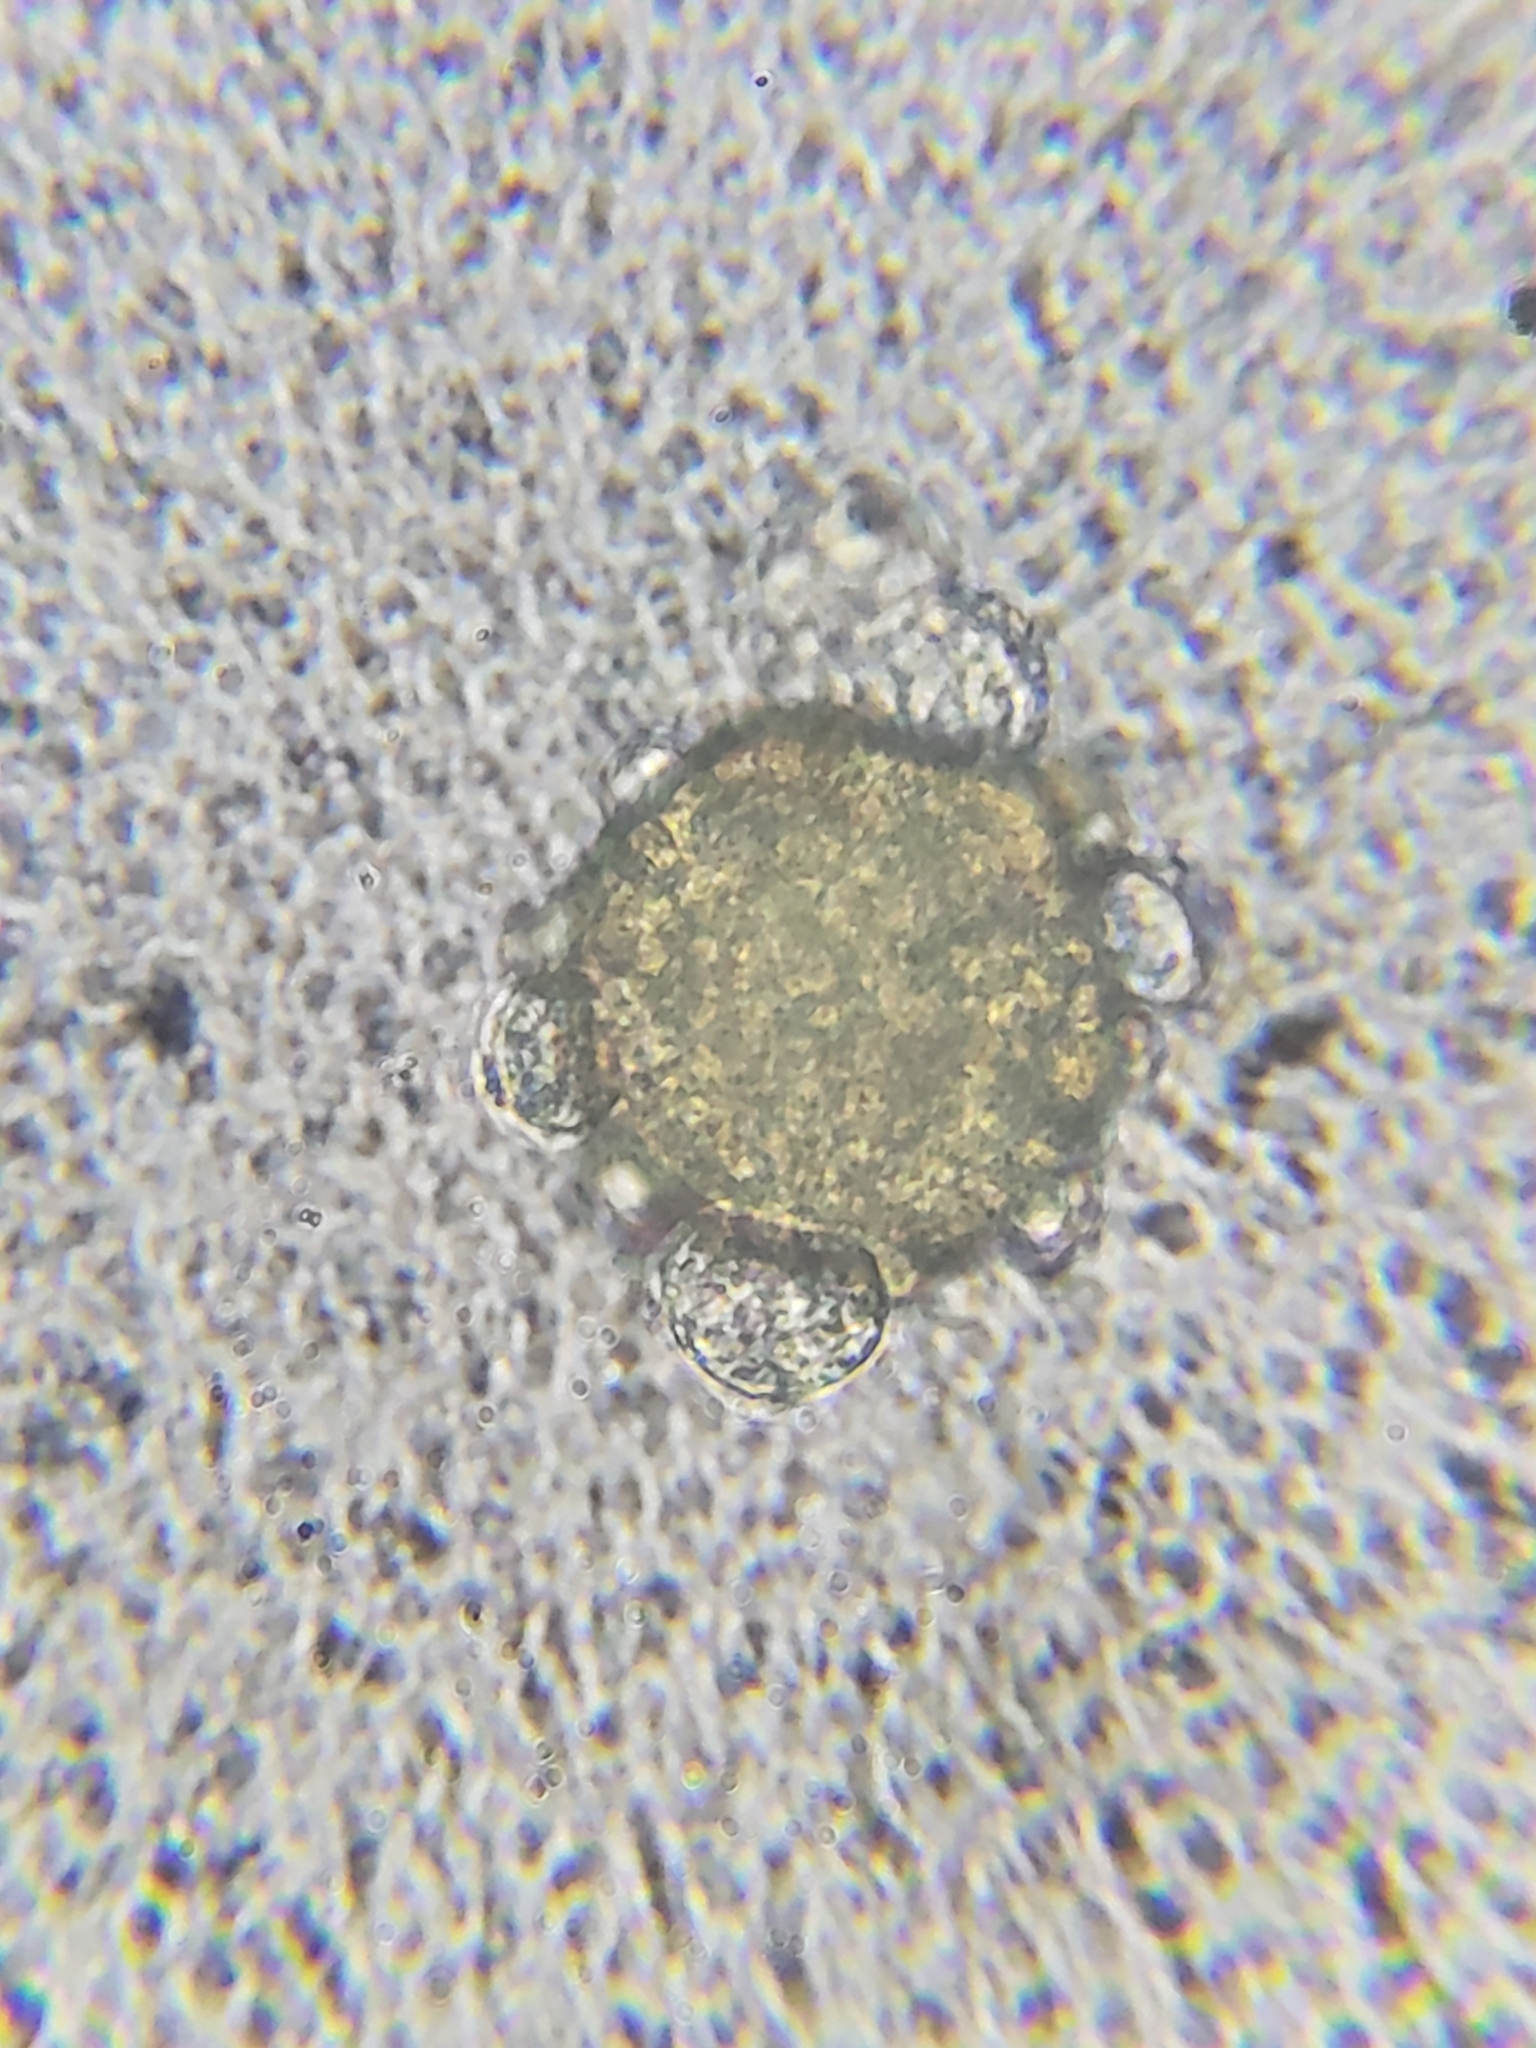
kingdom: Plantae
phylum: Tracheophyta
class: Magnoliopsida
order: Caryophyllales
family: Caryophyllaceae
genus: Stellaria
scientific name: Stellaria media
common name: Common chickweed
